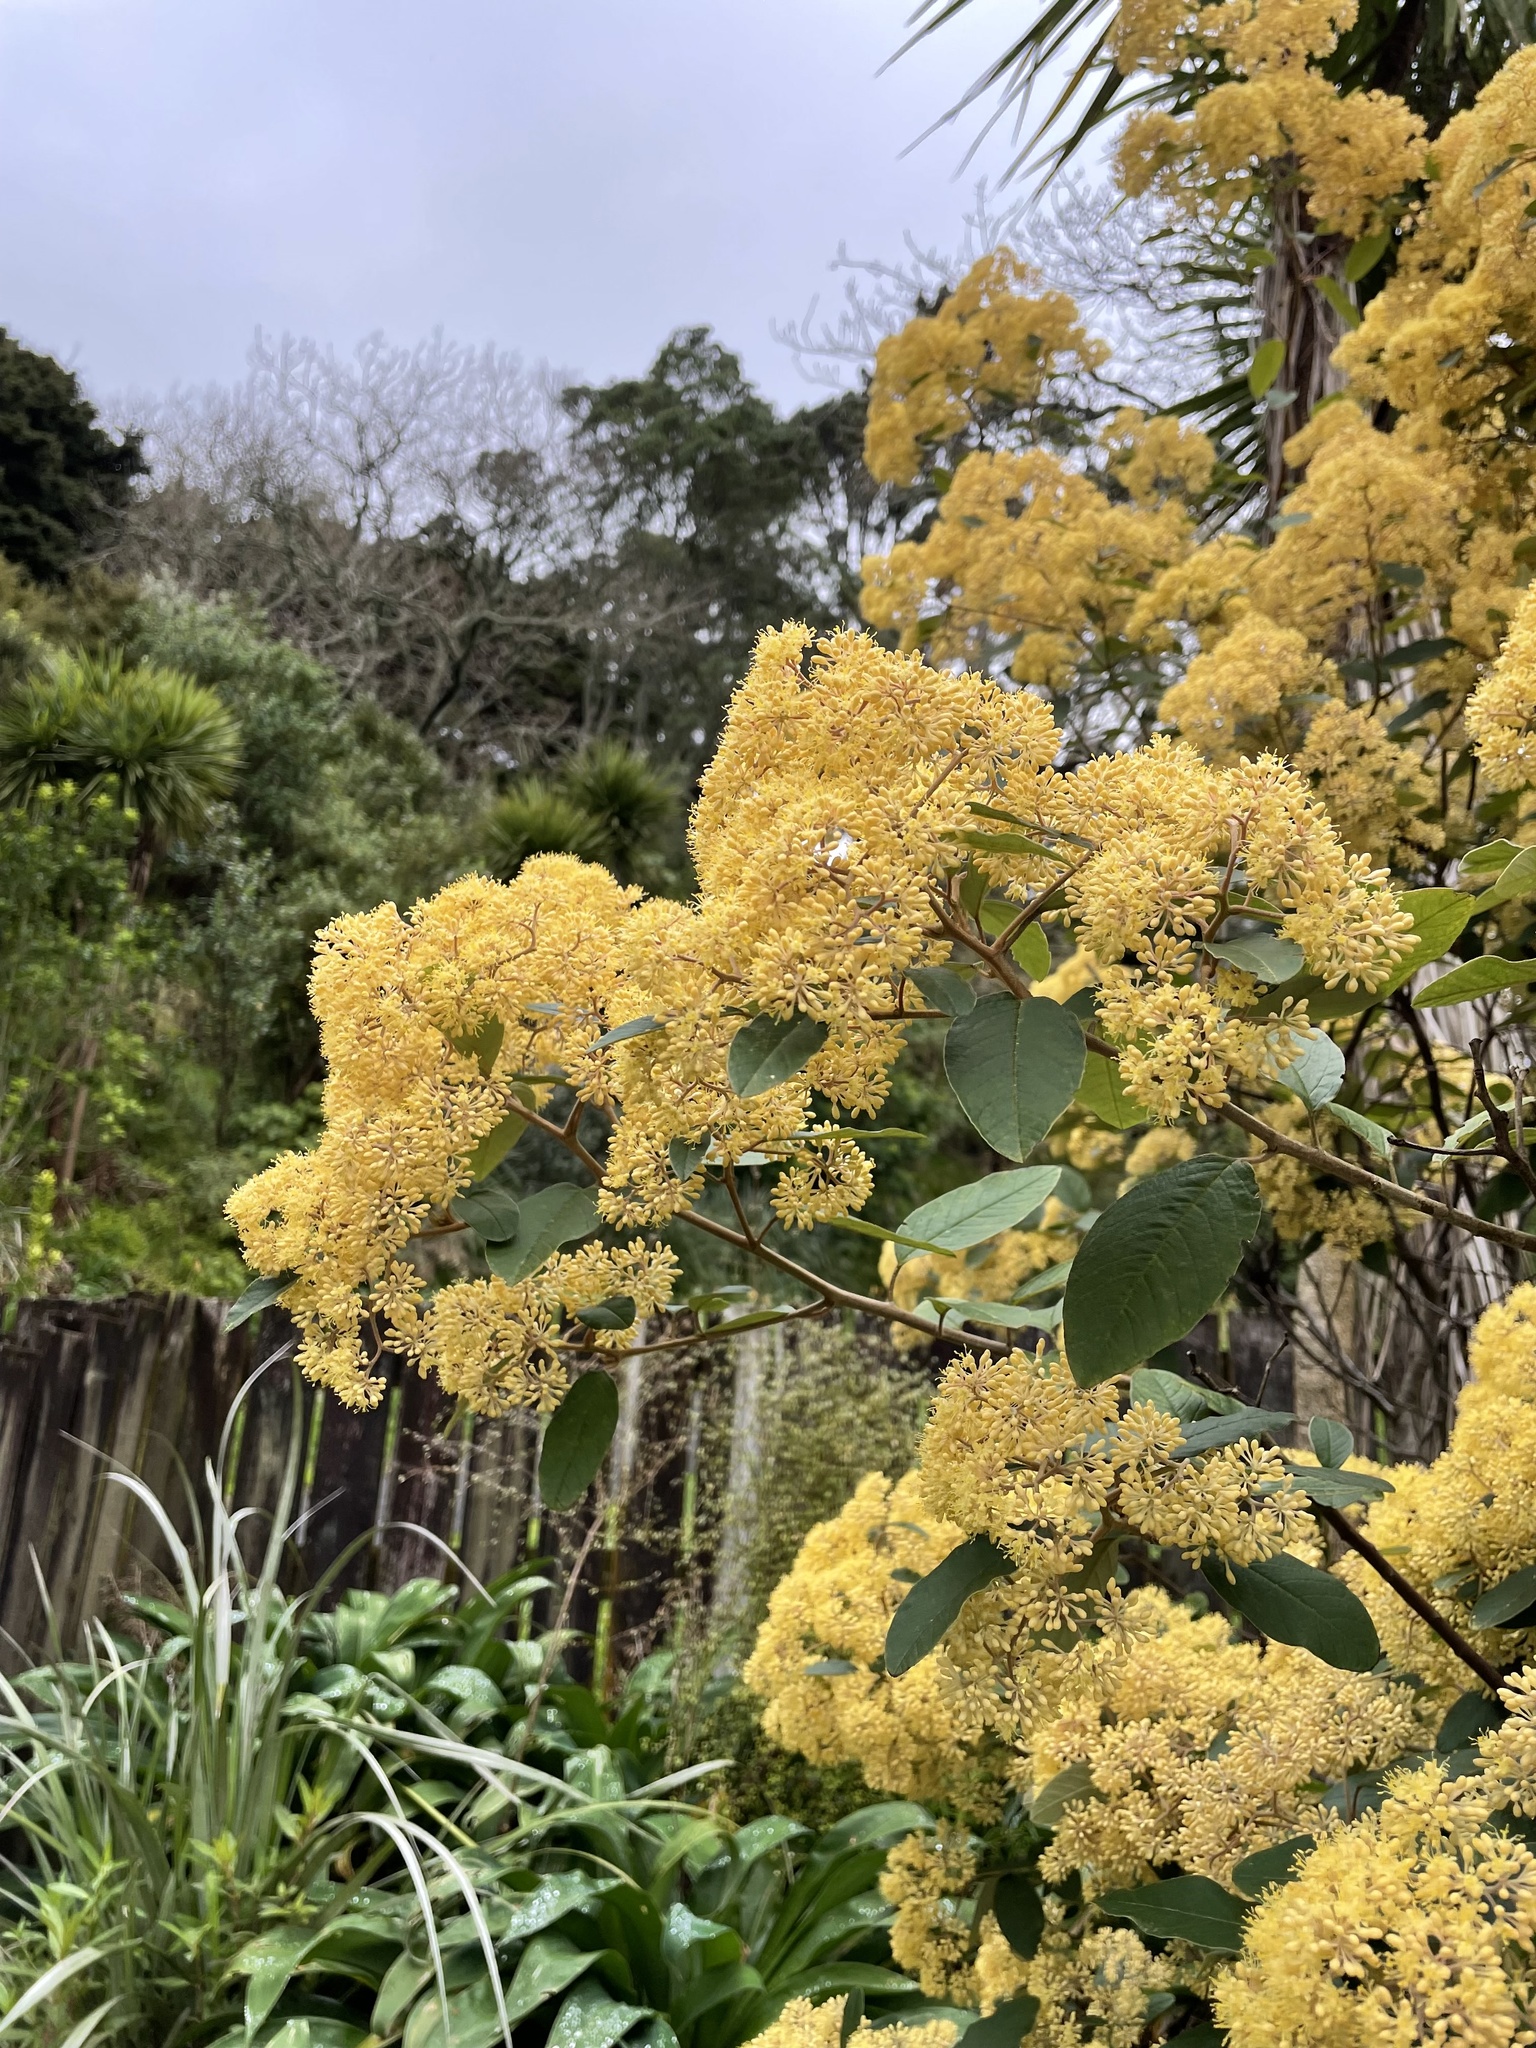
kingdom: Plantae
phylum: Tracheophyta
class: Magnoliopsida
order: Rosales
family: Rhamnaceae
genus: Pomaderris
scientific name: Pomaderris kumeraho
